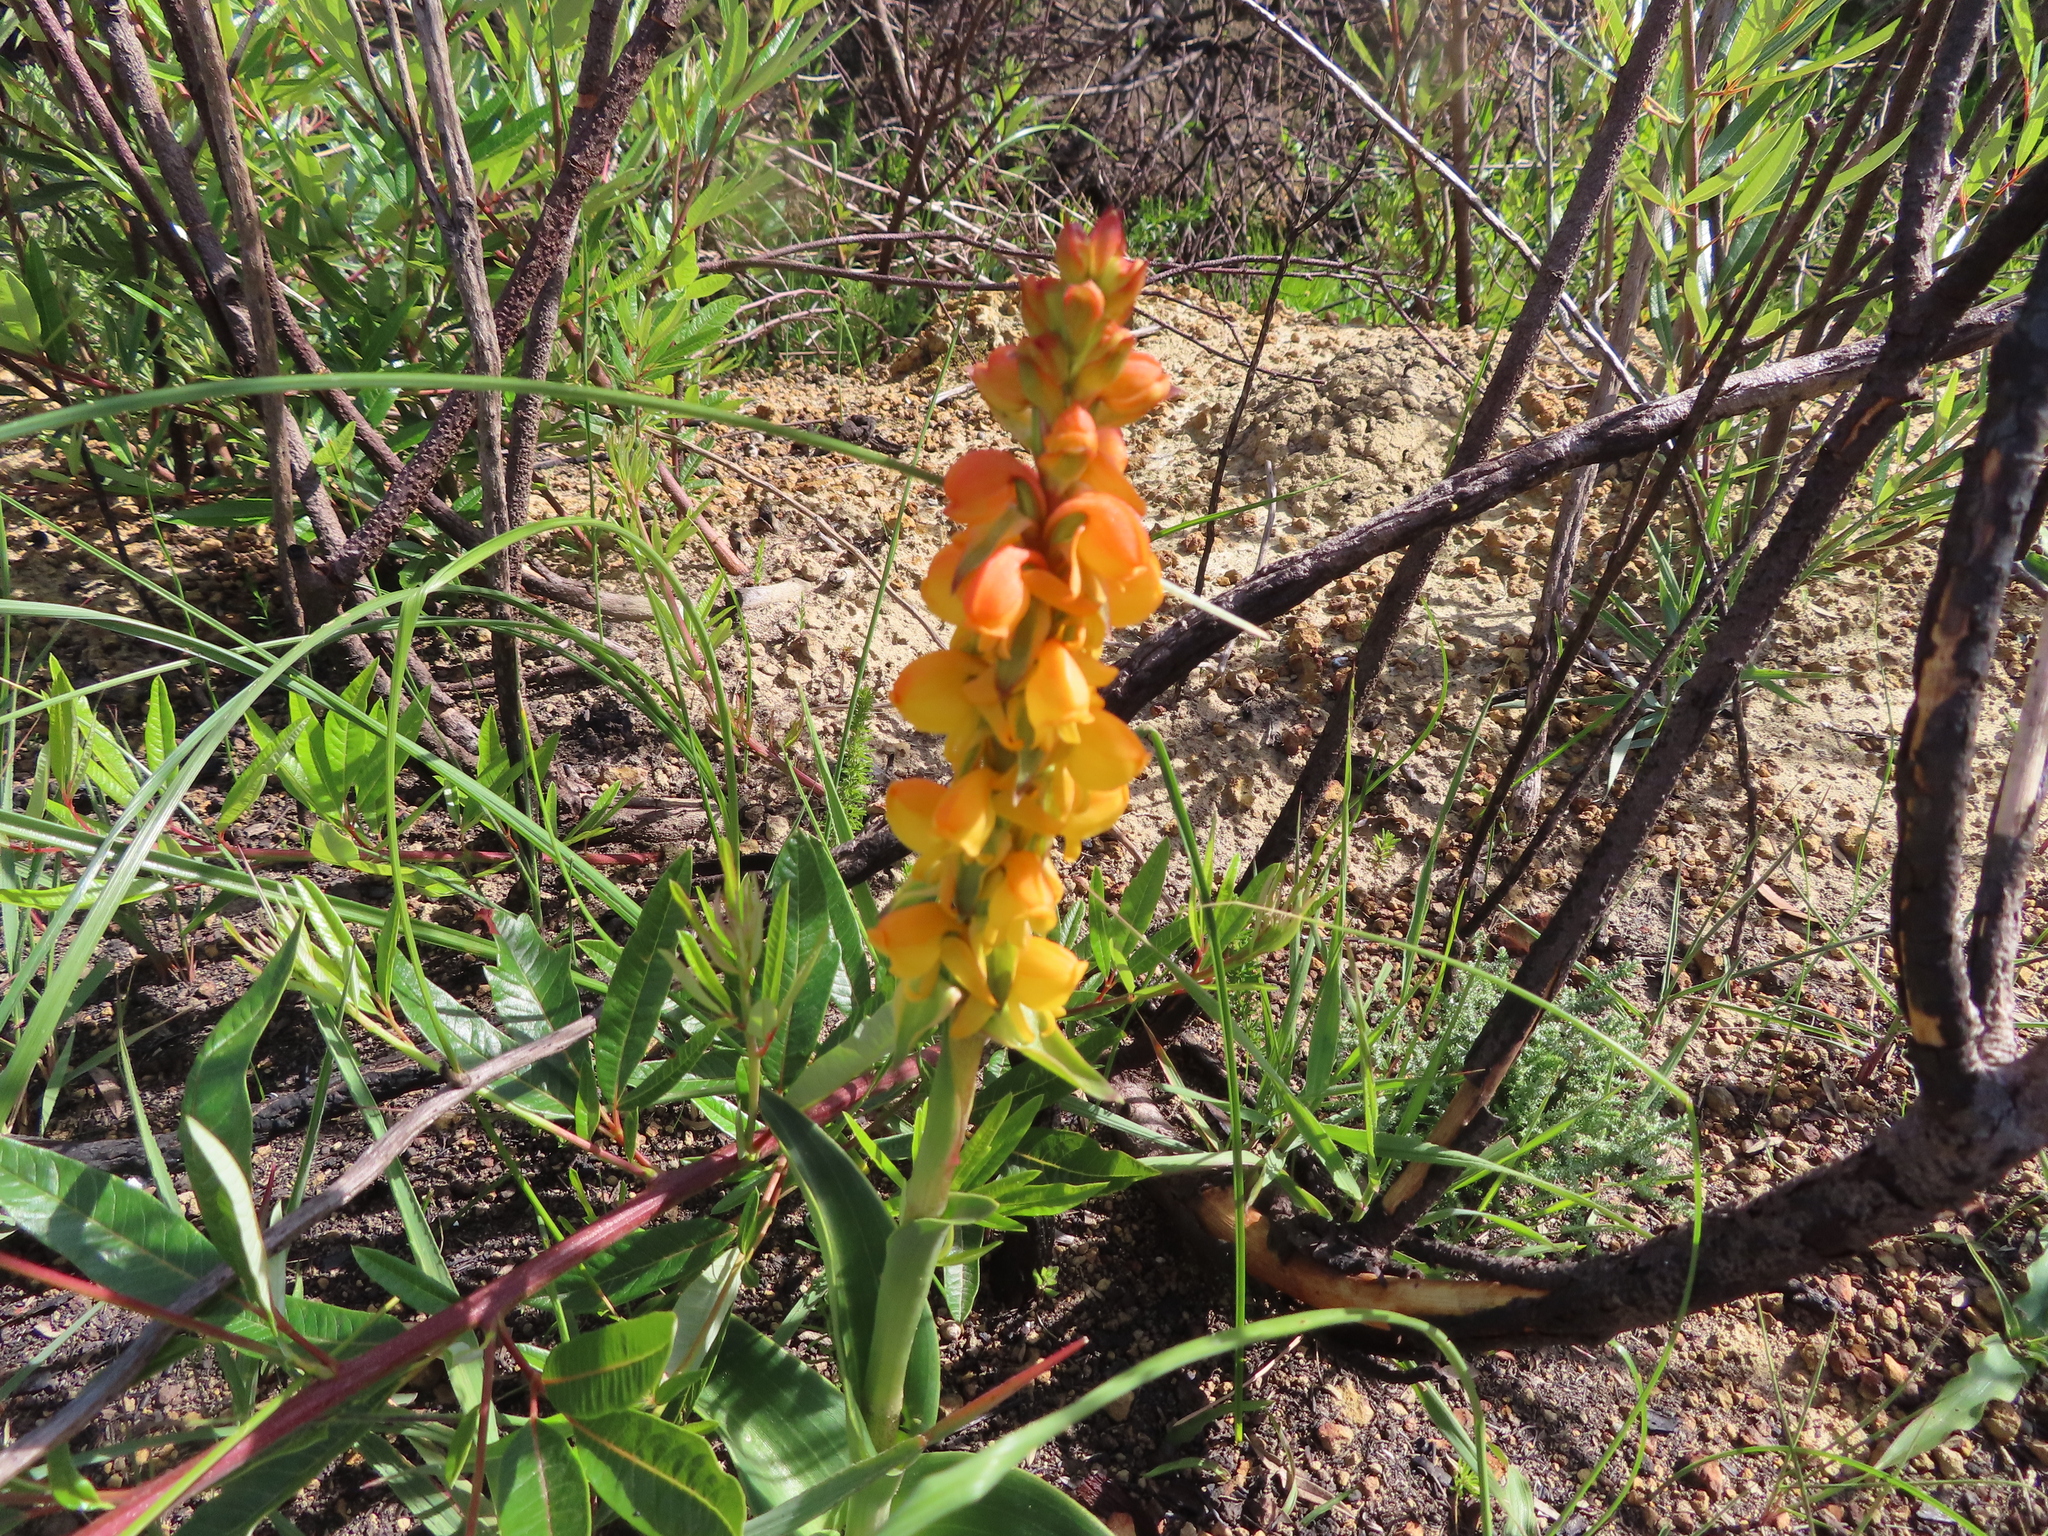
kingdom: Plantae
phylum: Tracheophyta
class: Liliopsida
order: Asparagales
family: Orchidaceae
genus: Satyrium
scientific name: Satyrium coriifolium
